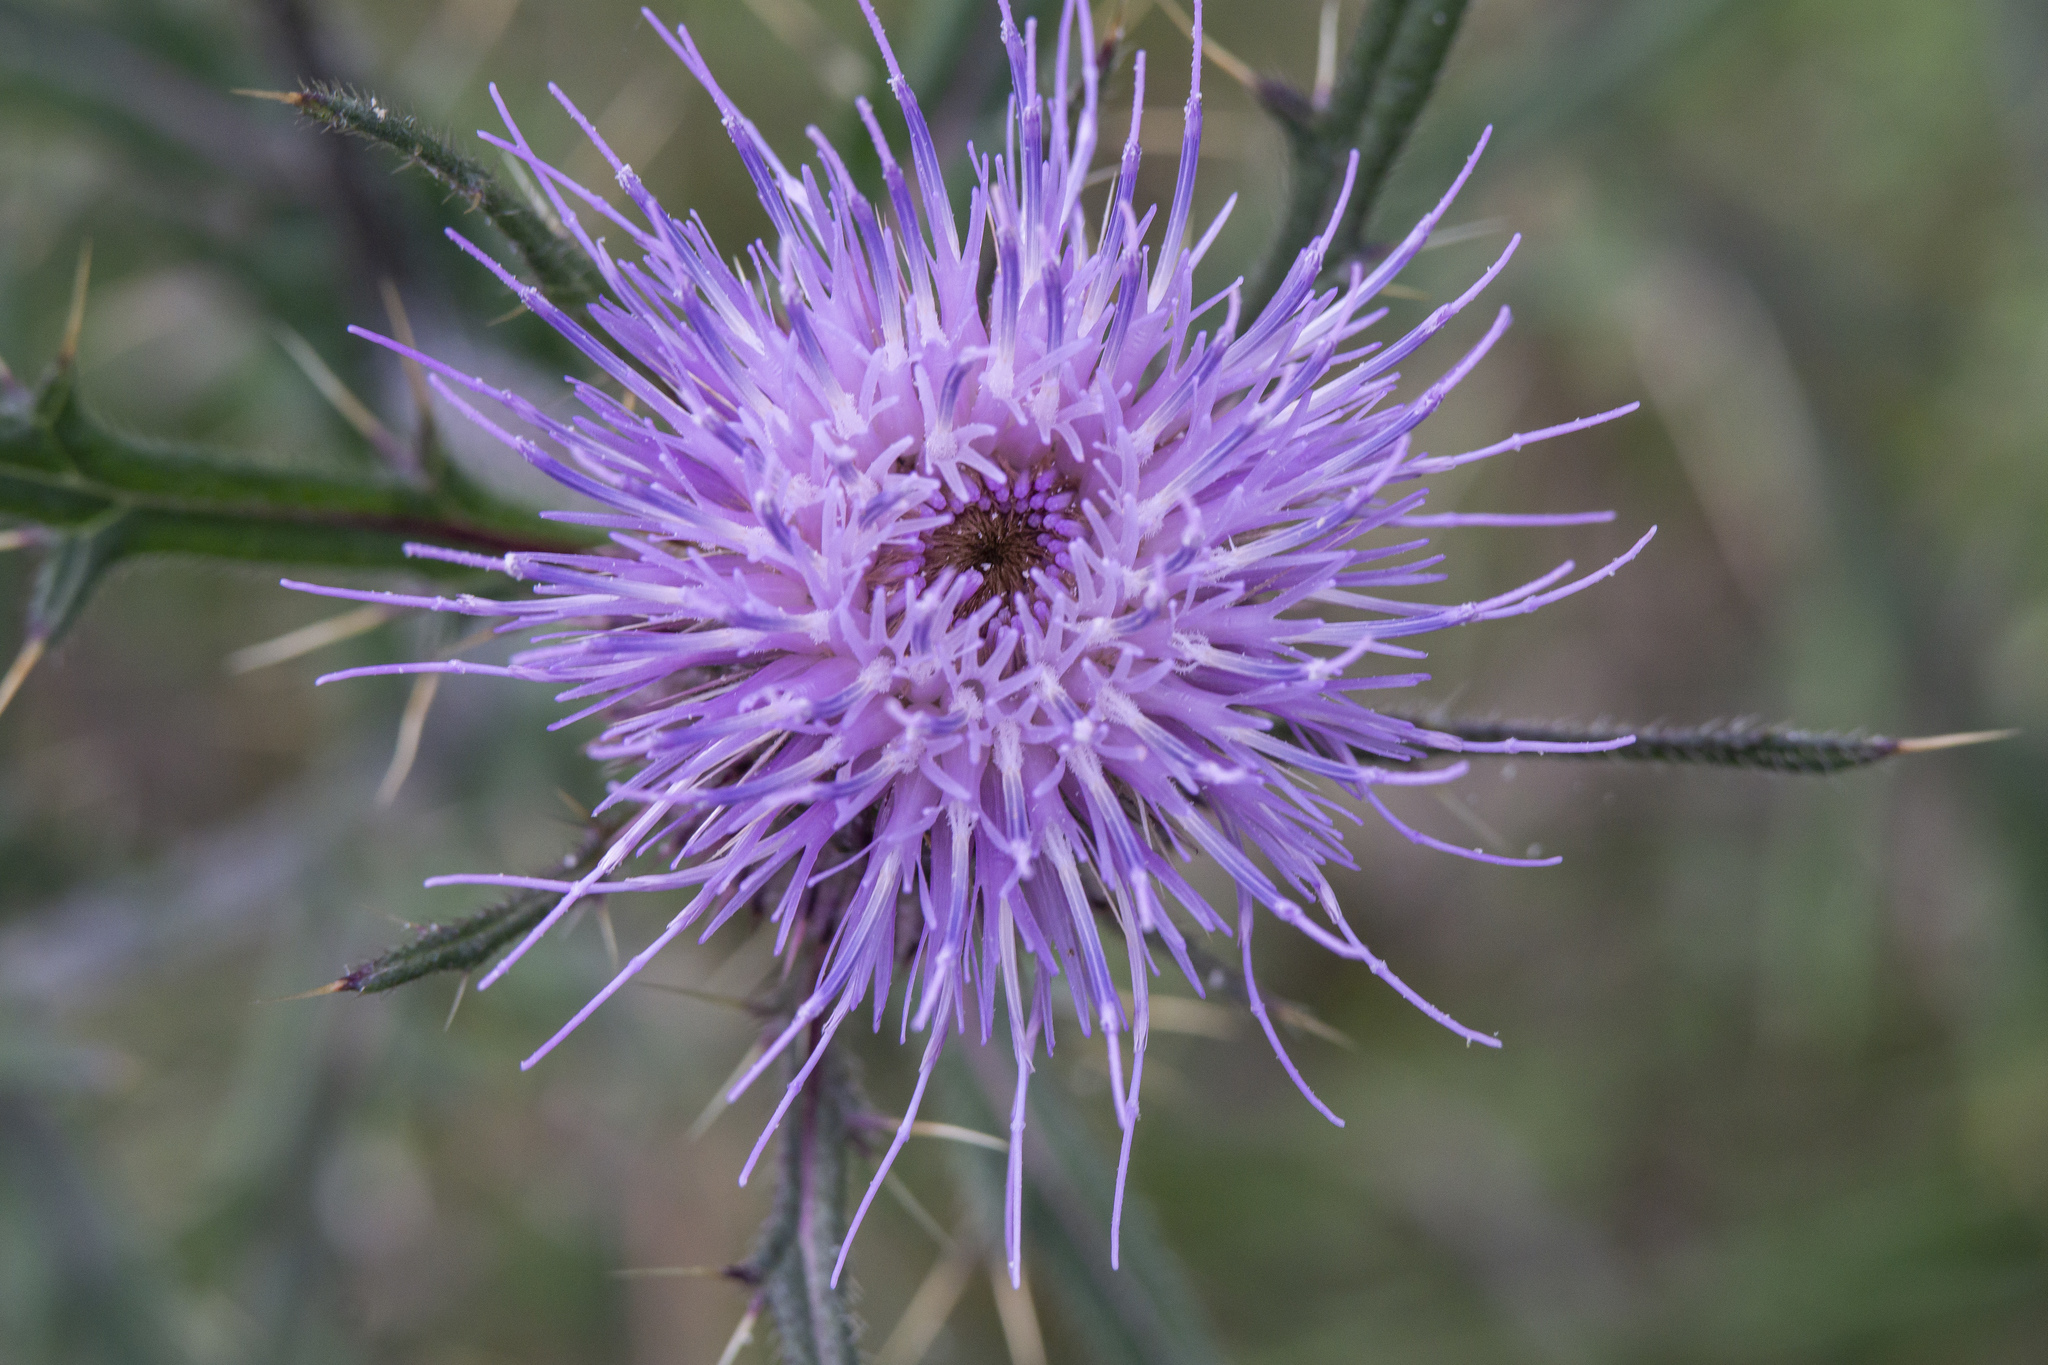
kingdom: Plantae
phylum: Tracheophyta
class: Magnoliopsida
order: Asterales
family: Asteraceae
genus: Lophiolepis
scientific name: Lophiolepis furiens
